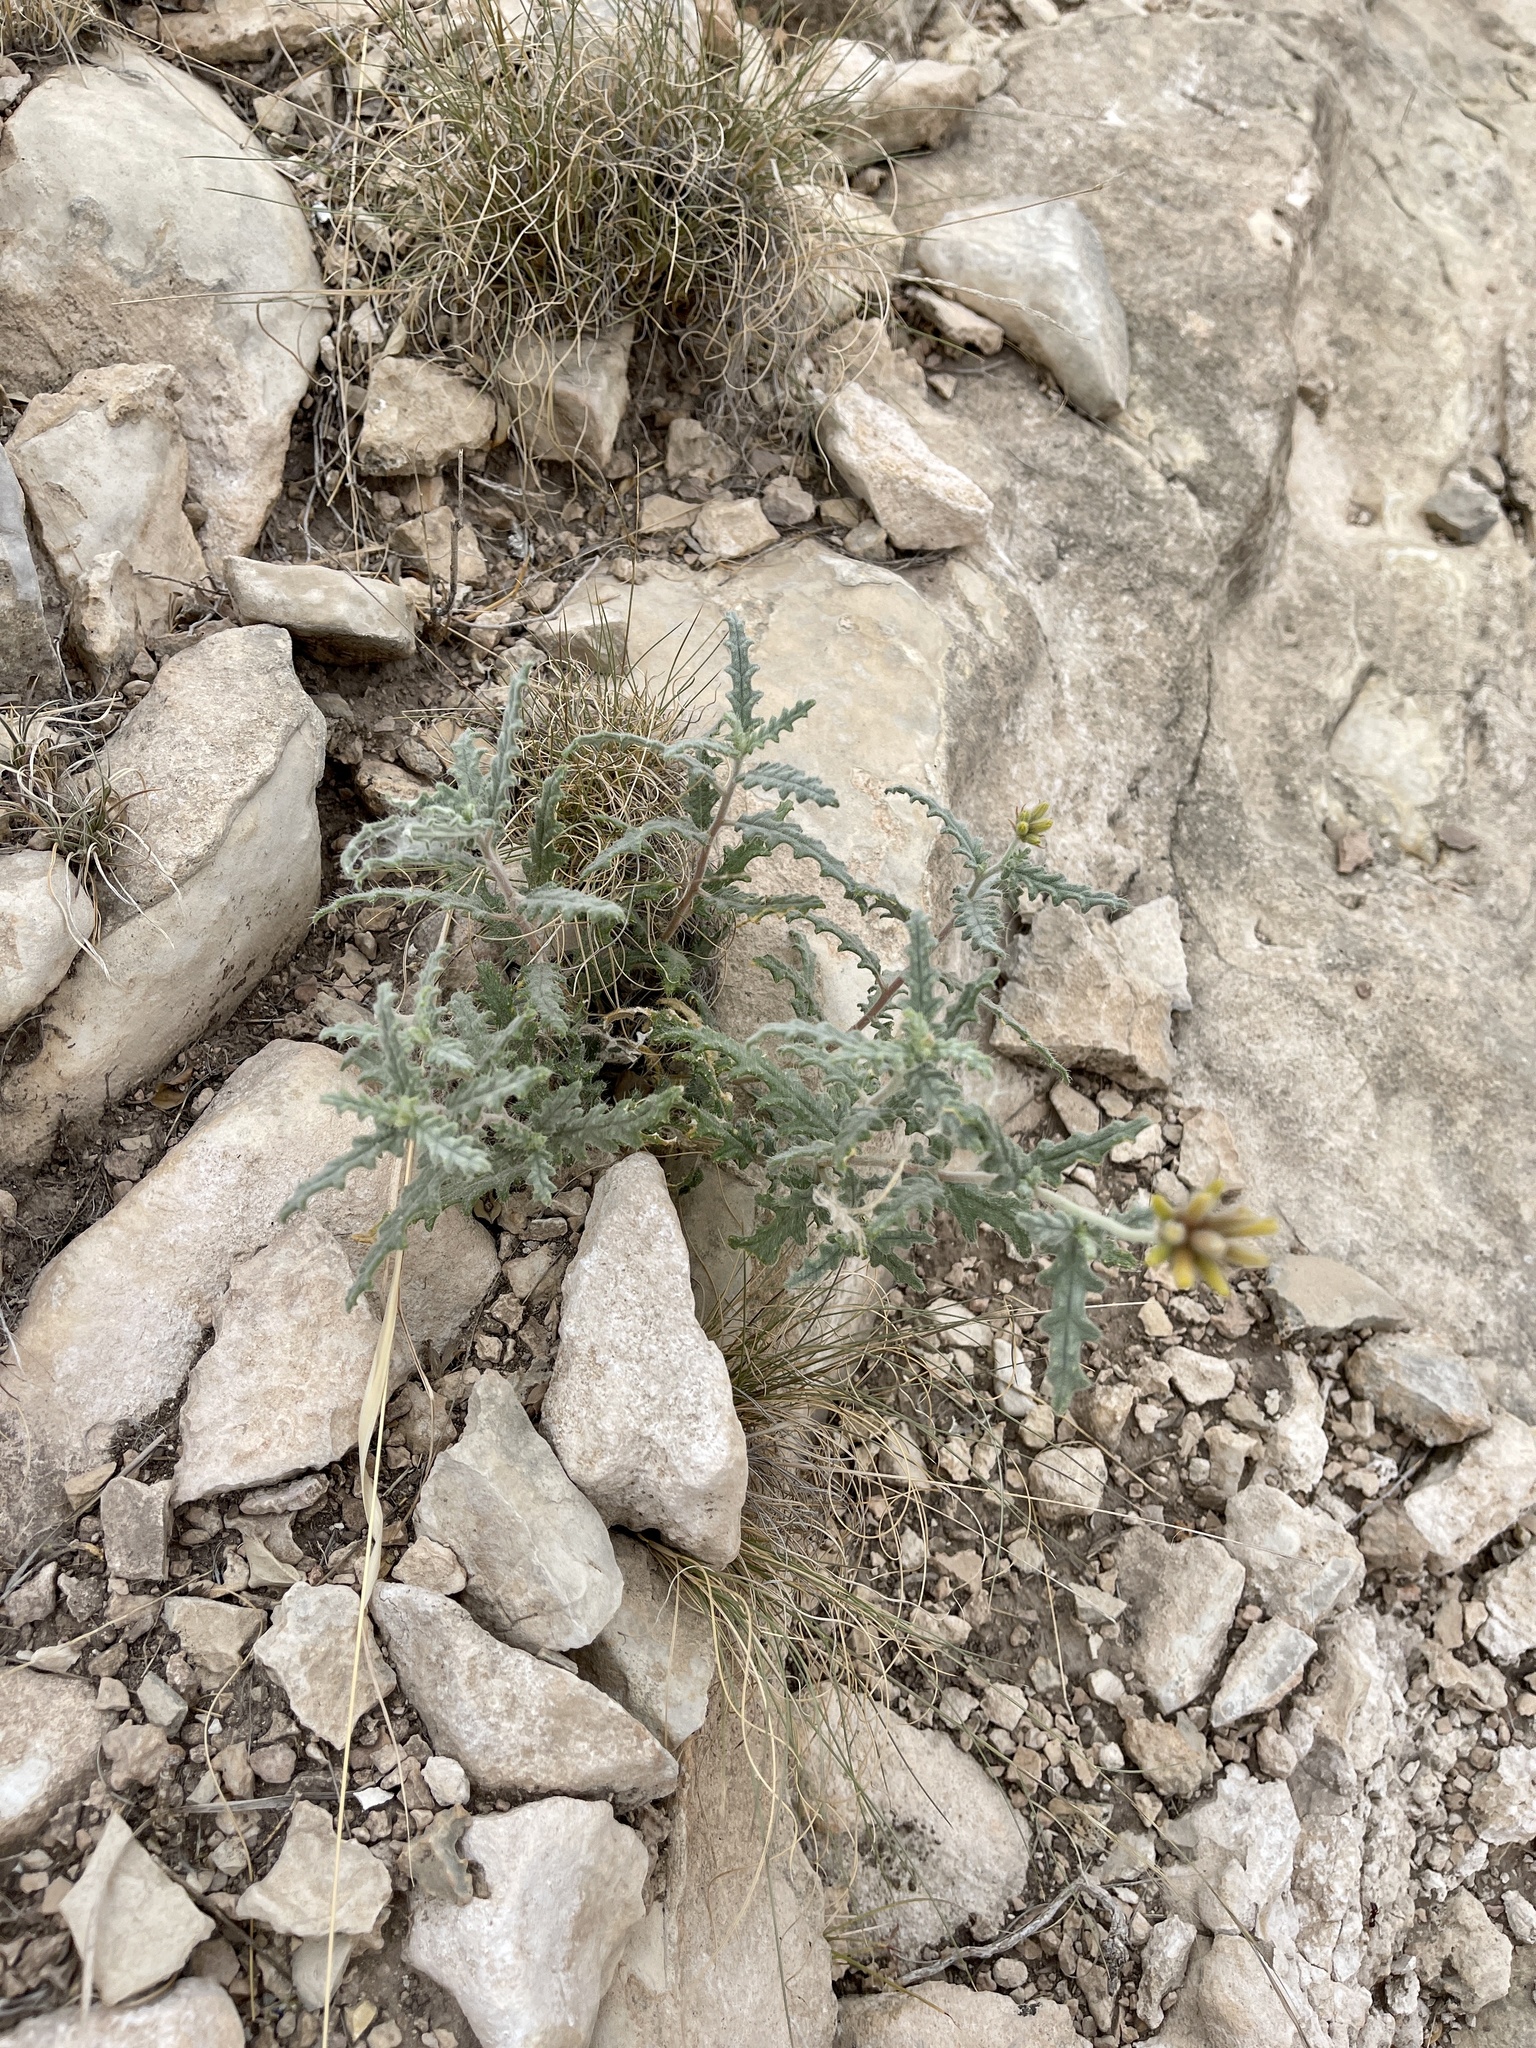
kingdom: Plantae
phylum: Tracheophyta
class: Magnoliopsida
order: Cornales
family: Loasaceae
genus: Cevallia
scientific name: Cevallia sinuata
